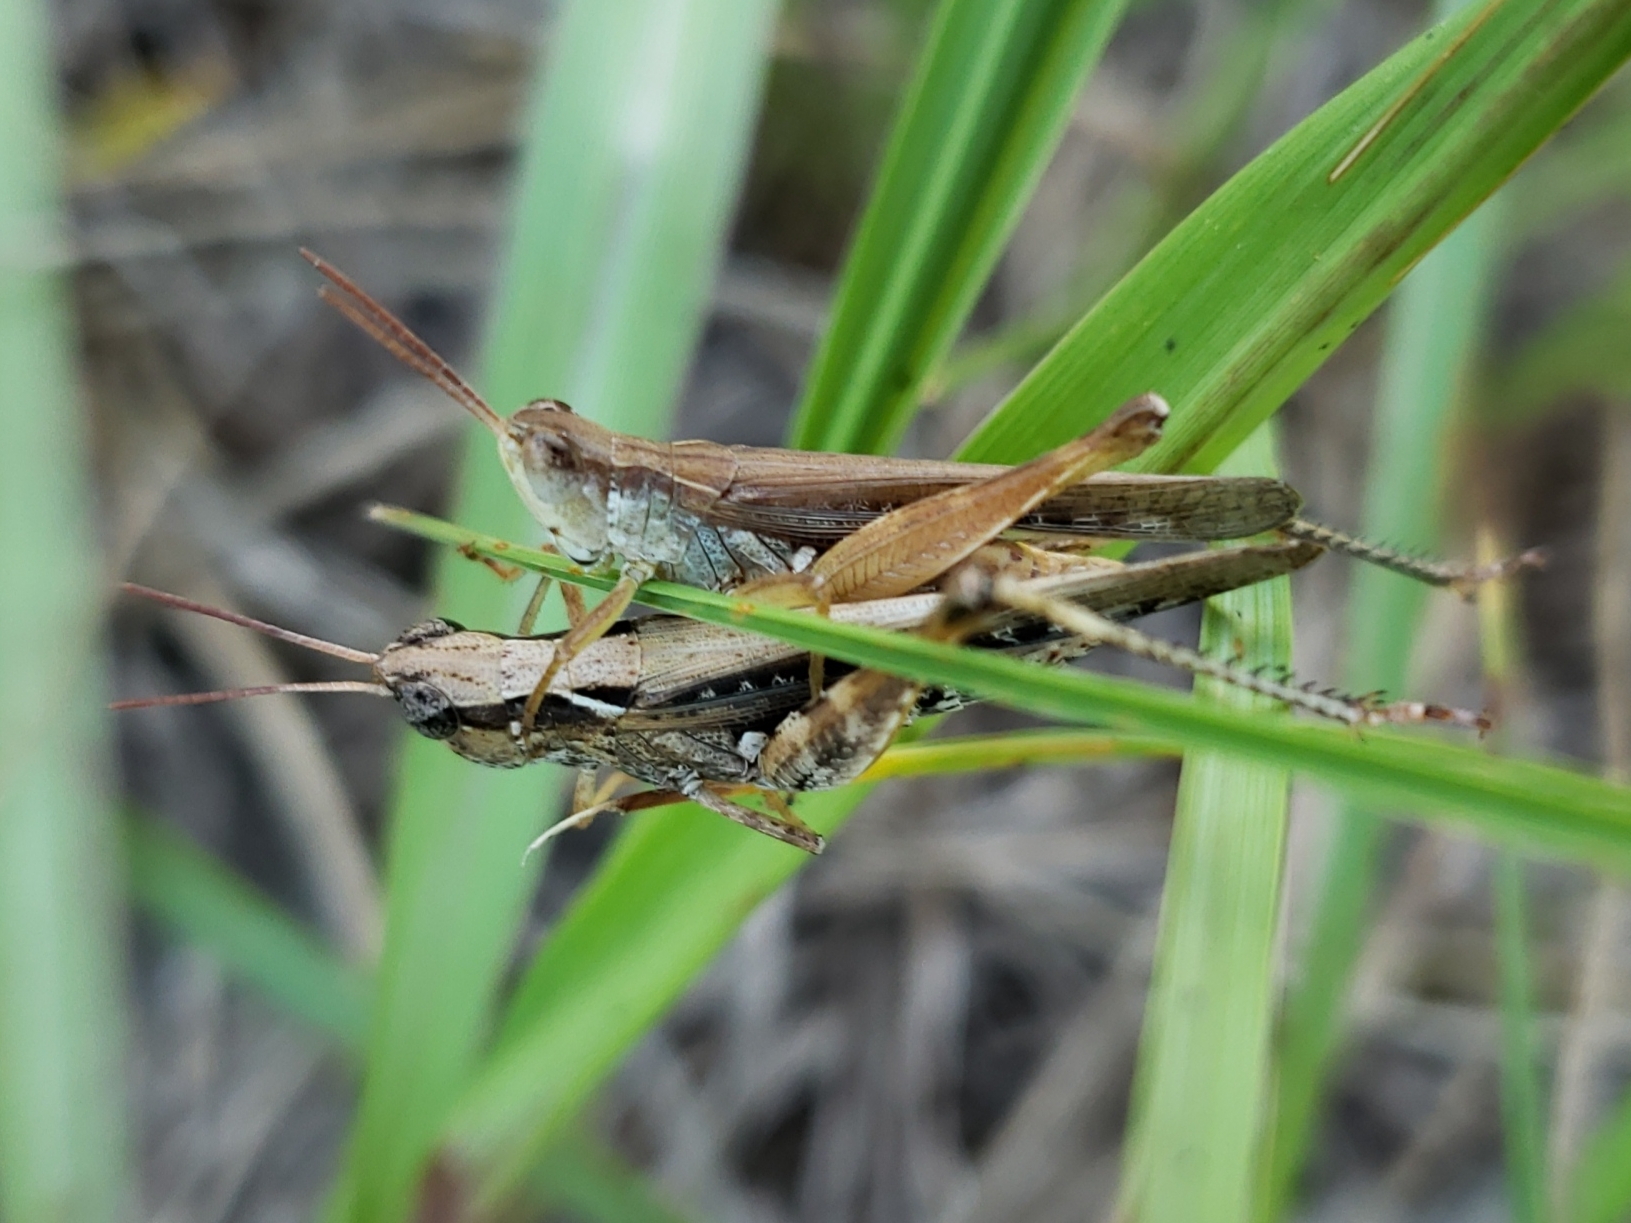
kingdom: Animalia
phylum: Arthropoda
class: Insecta
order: Orthoptera
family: Acrididae
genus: Orphulella
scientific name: Orphulella pelidna
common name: Spotted-wing grasshopper
